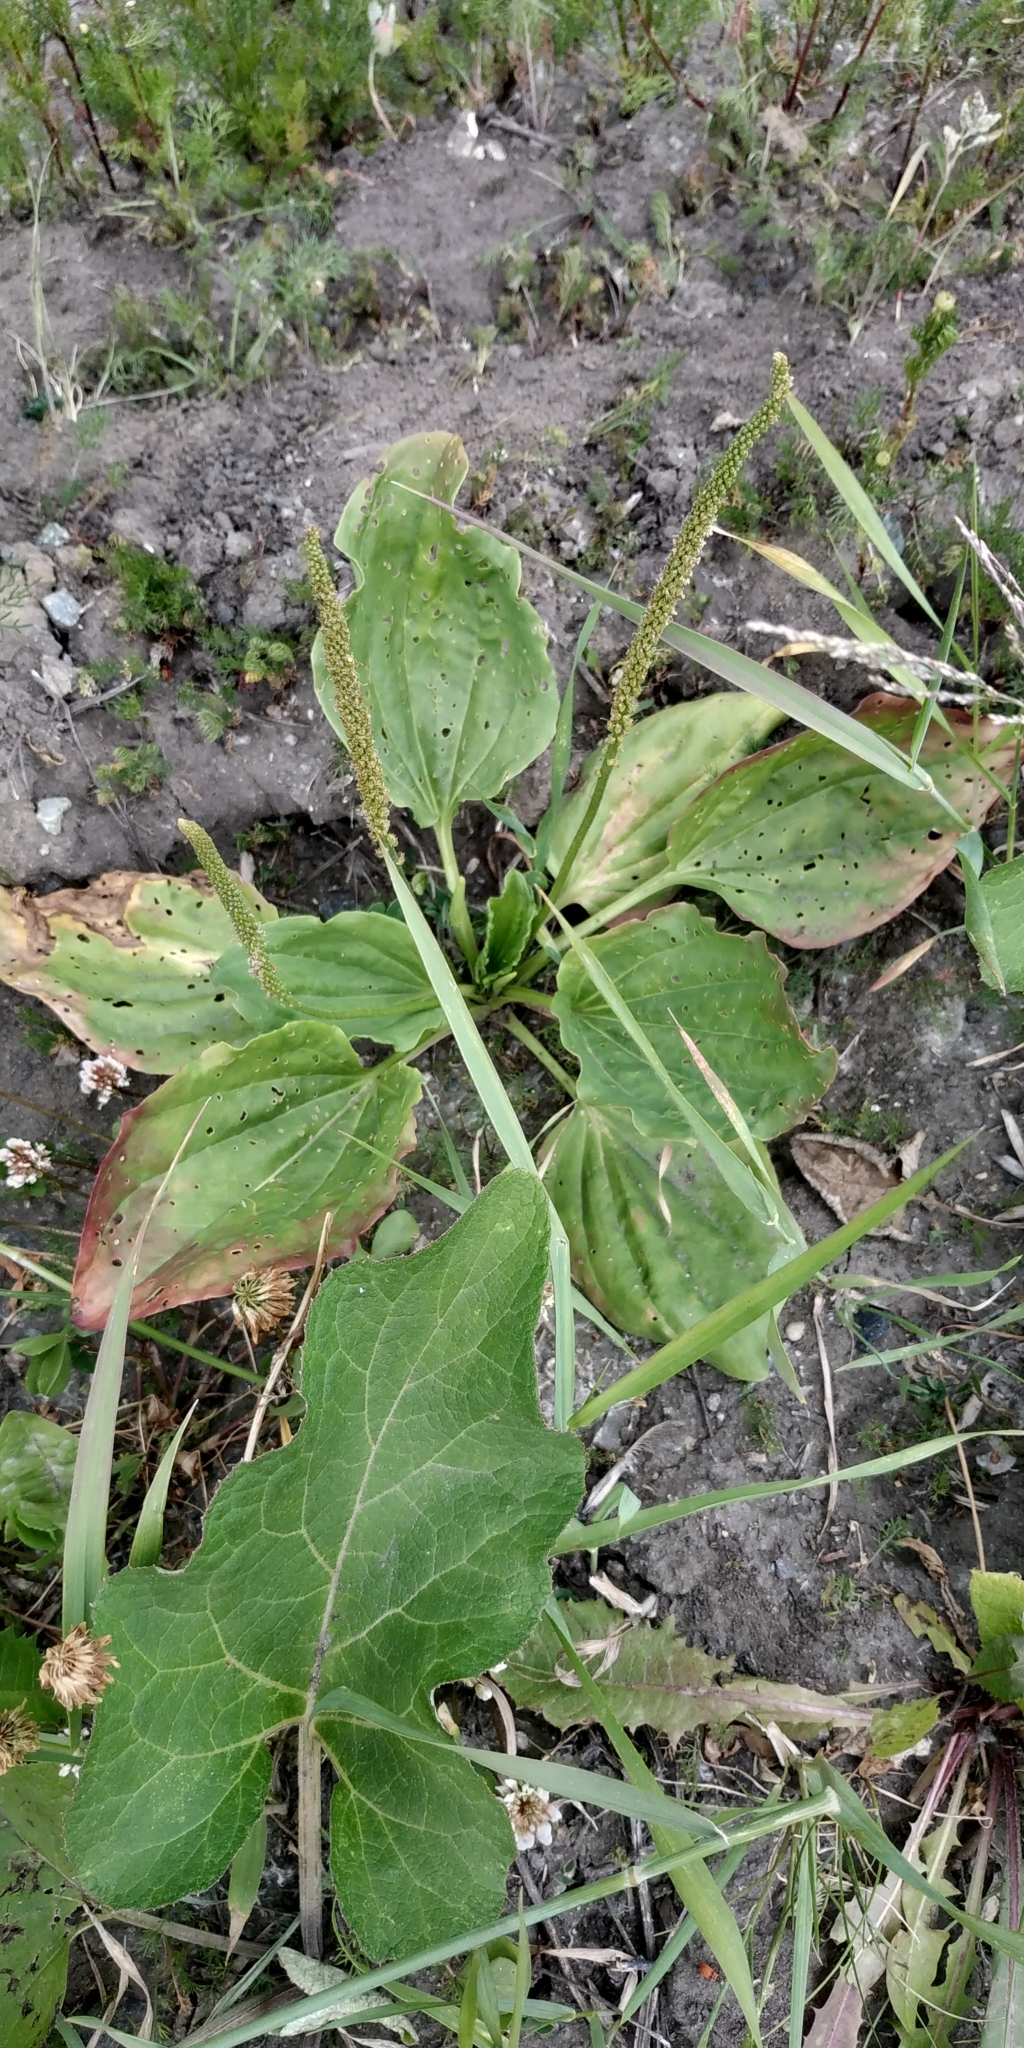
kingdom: Plantae
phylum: Tracheophyta
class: Magnoliopsida
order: Lamiales
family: Plantaginaceae
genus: Plantago
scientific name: Plantago major
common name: Common plantain
